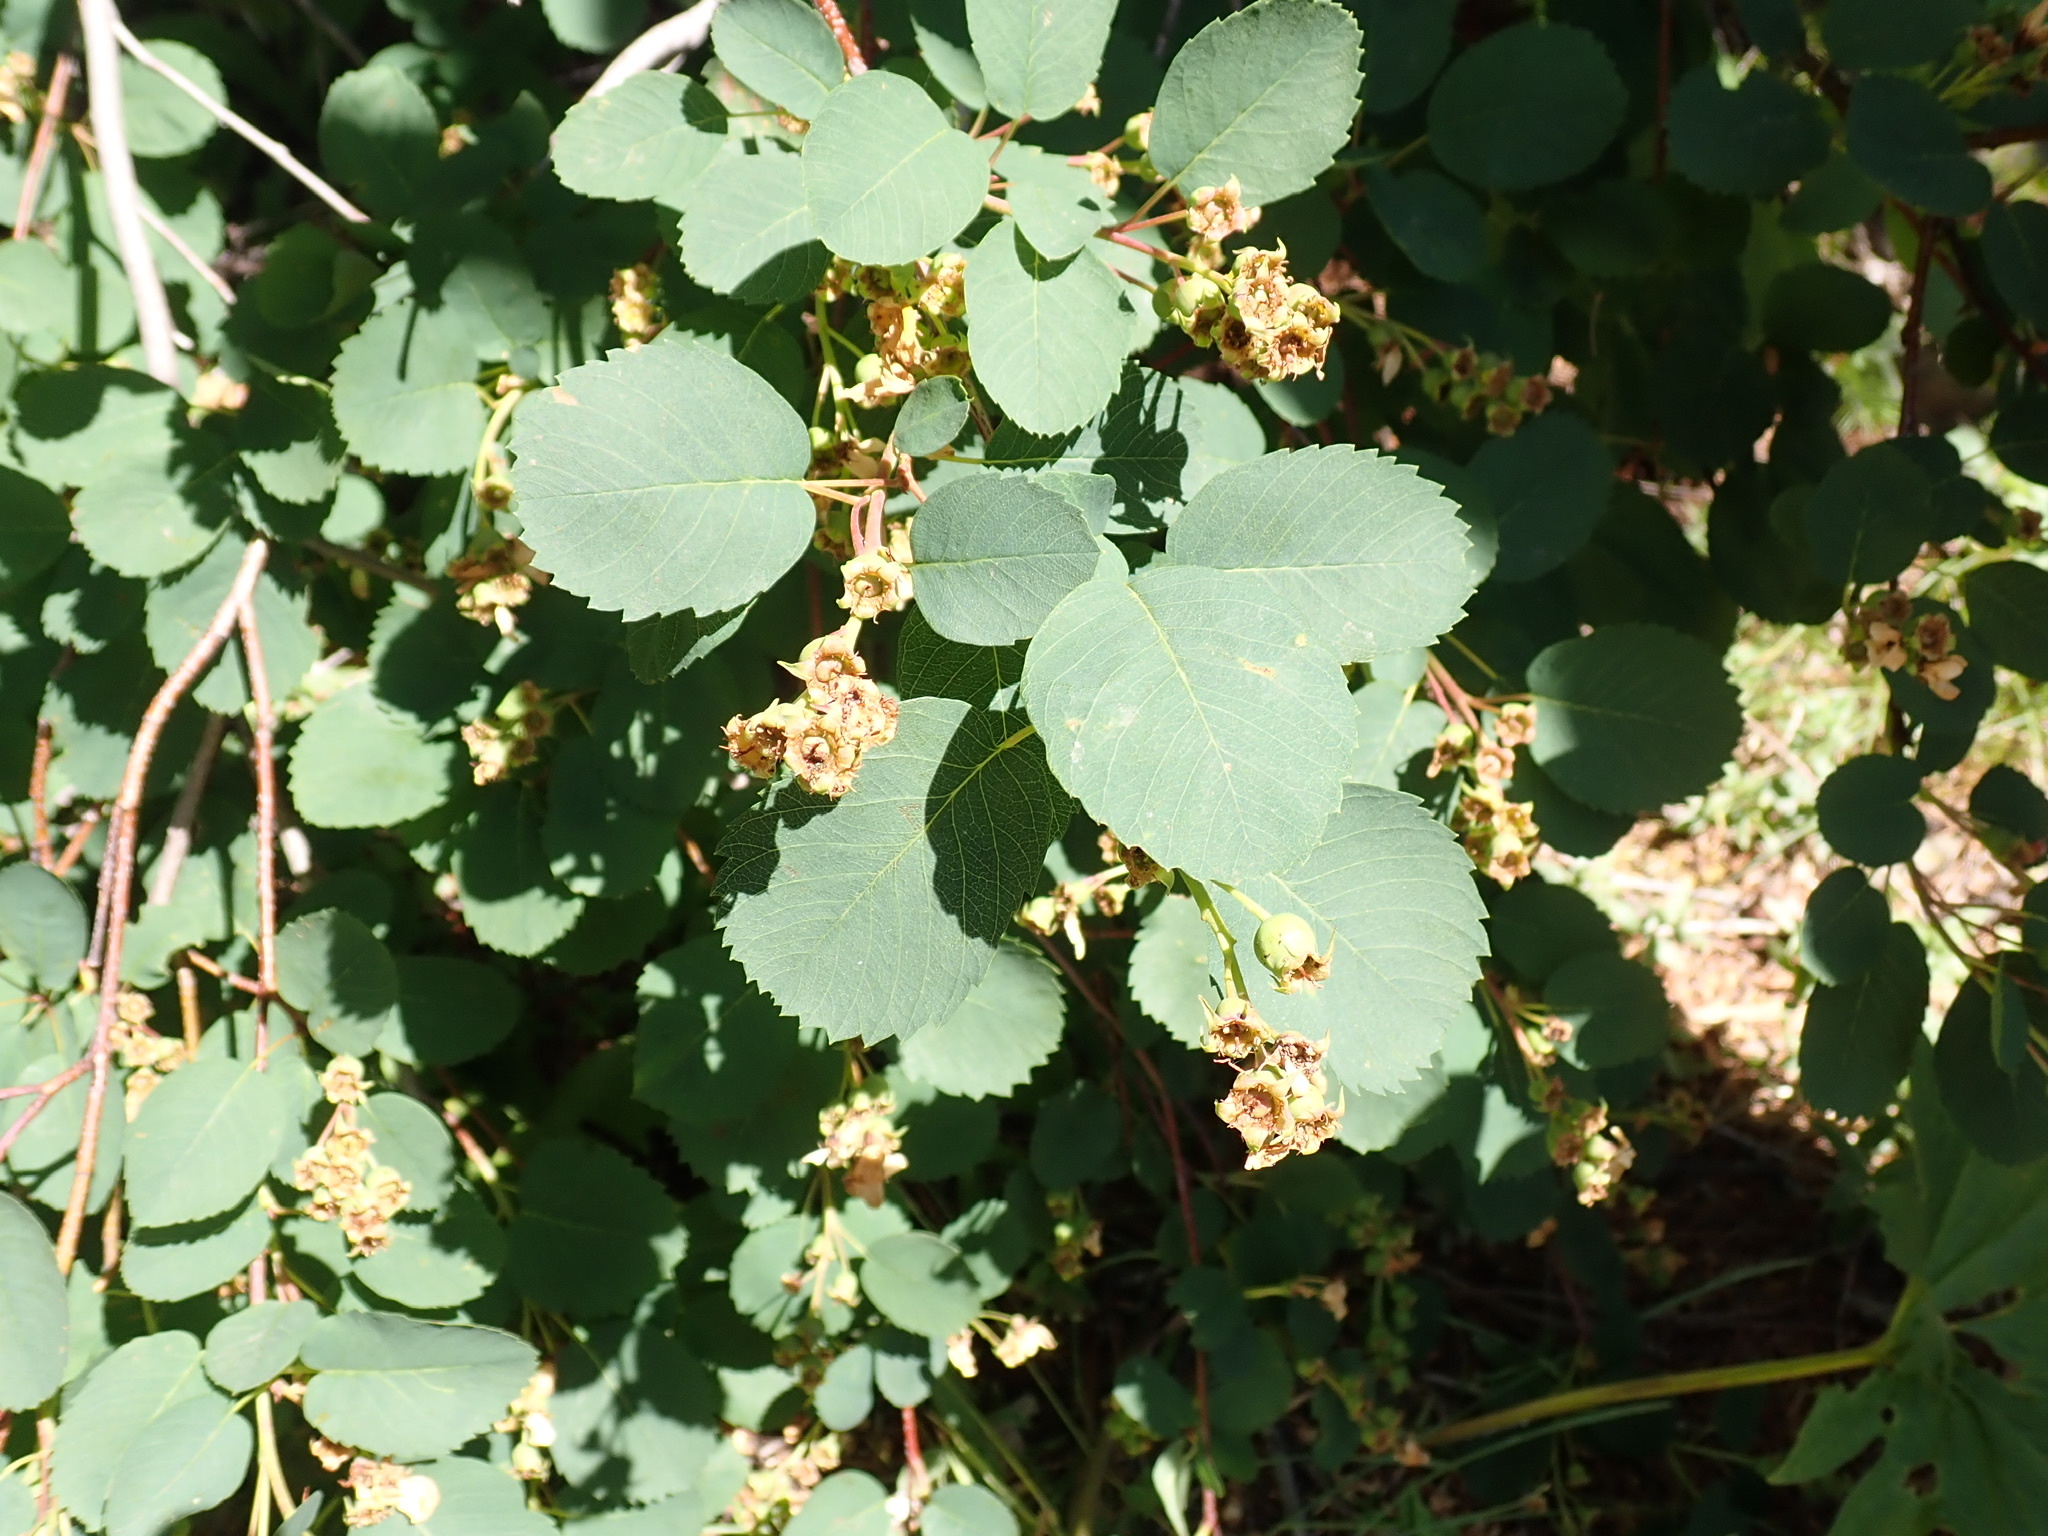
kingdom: Plantae
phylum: Tracheophyta
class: Magnoliopsida
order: Rosales
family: Rosaceae
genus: Amelanchier
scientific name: Amelanchier alnifolia
